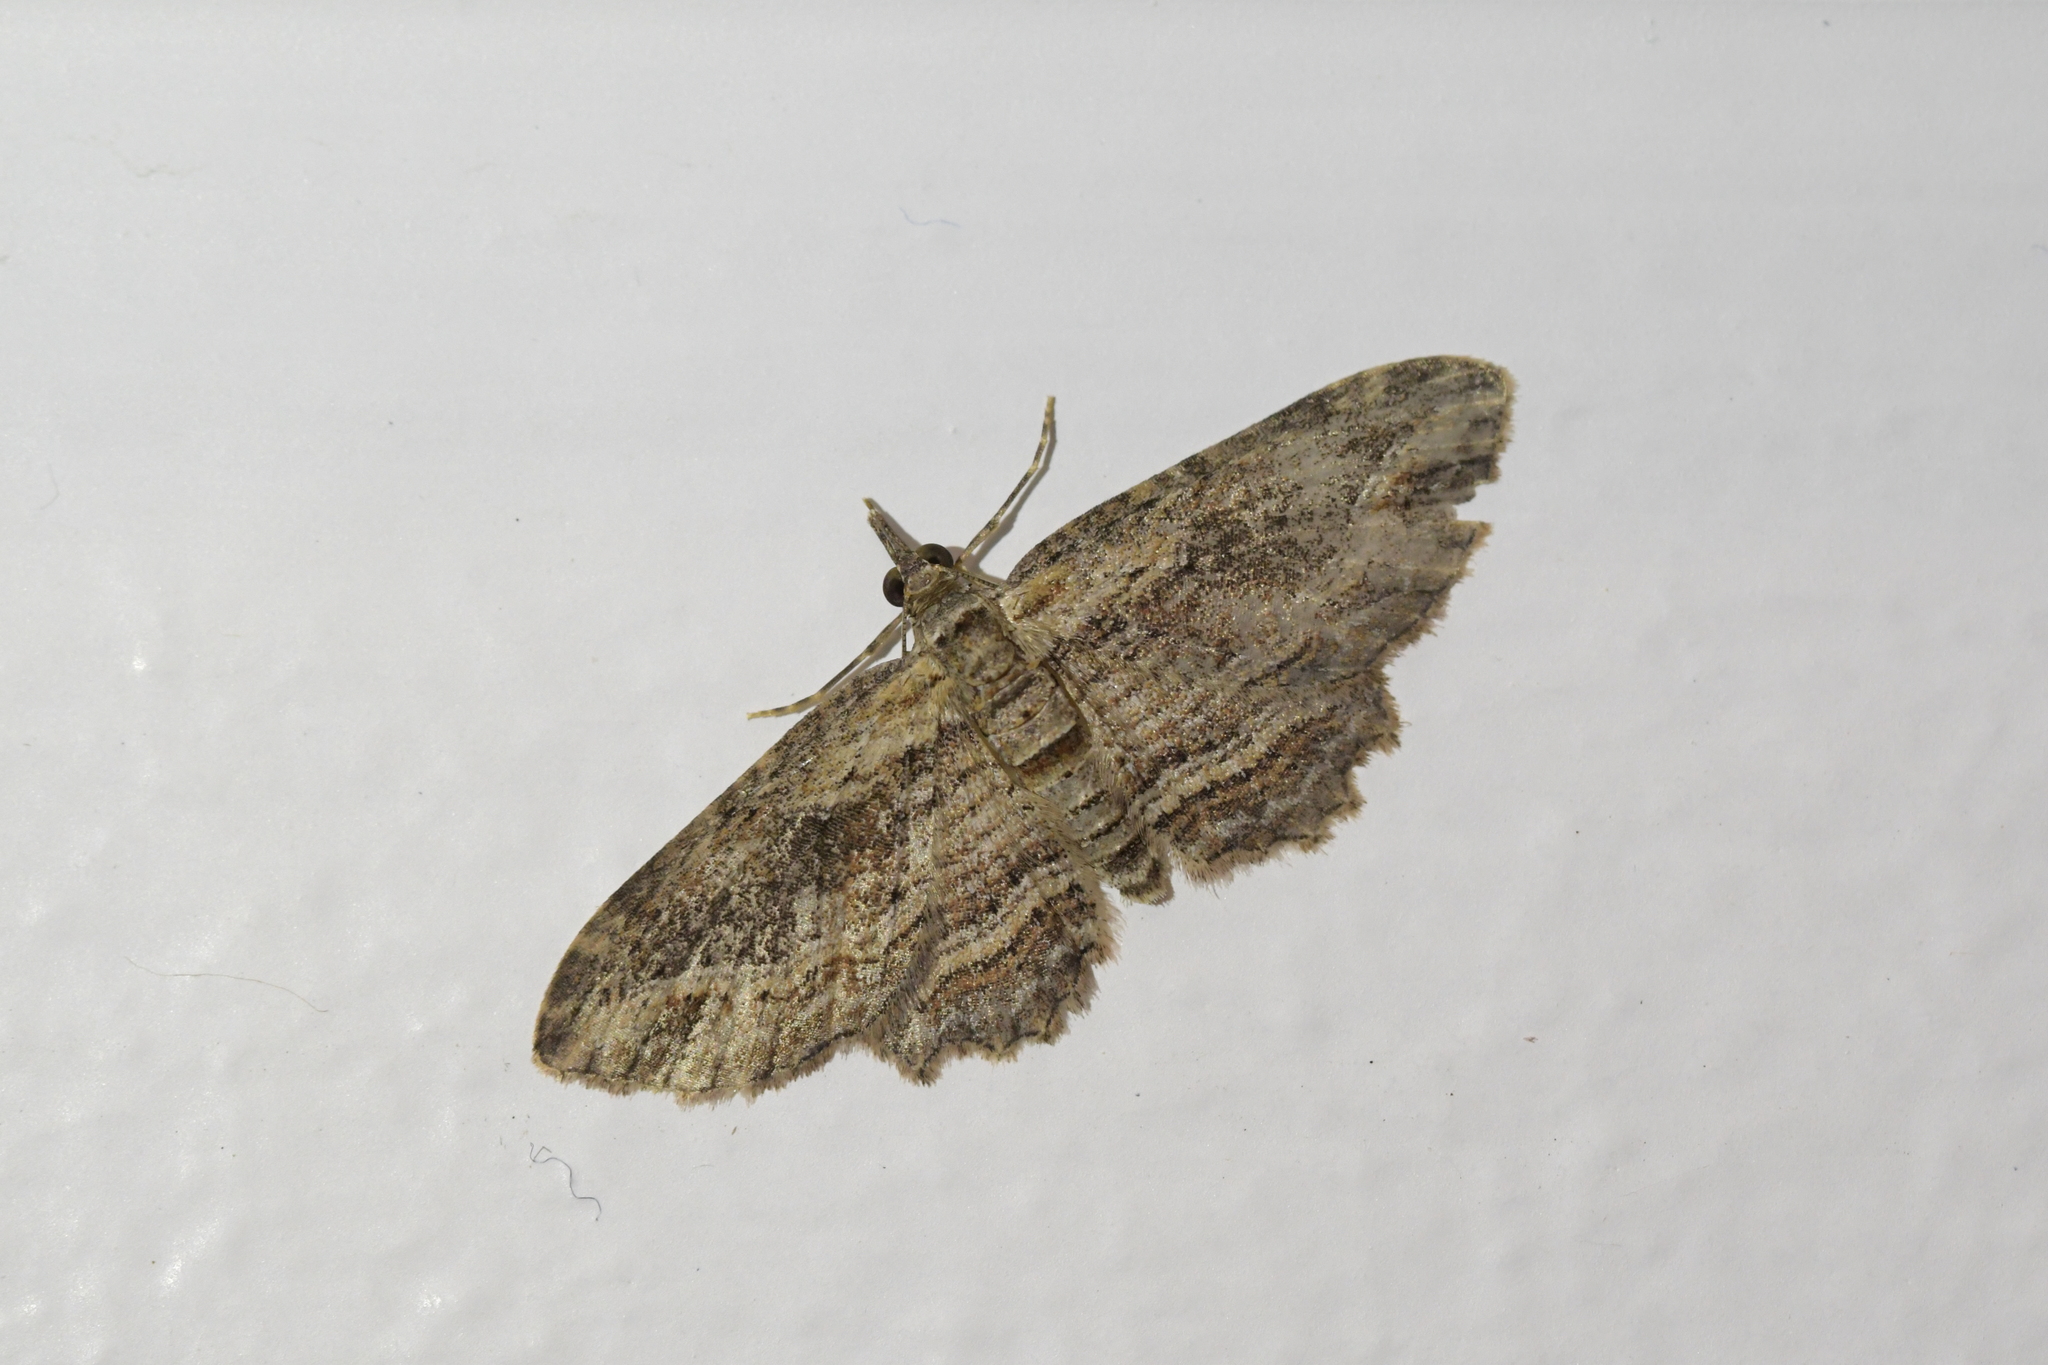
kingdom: Animalia
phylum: Arthropoda
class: Insecta
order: Lepidoptera
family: Geometridae
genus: Chloroclystis
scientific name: Chloroclystis filata
